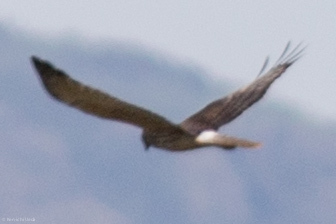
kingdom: Animalia
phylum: Chordata
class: Aves
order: Accipitriformes
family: Accipitridae
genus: Circus
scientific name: Circus approximans
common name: Swamp harrier
